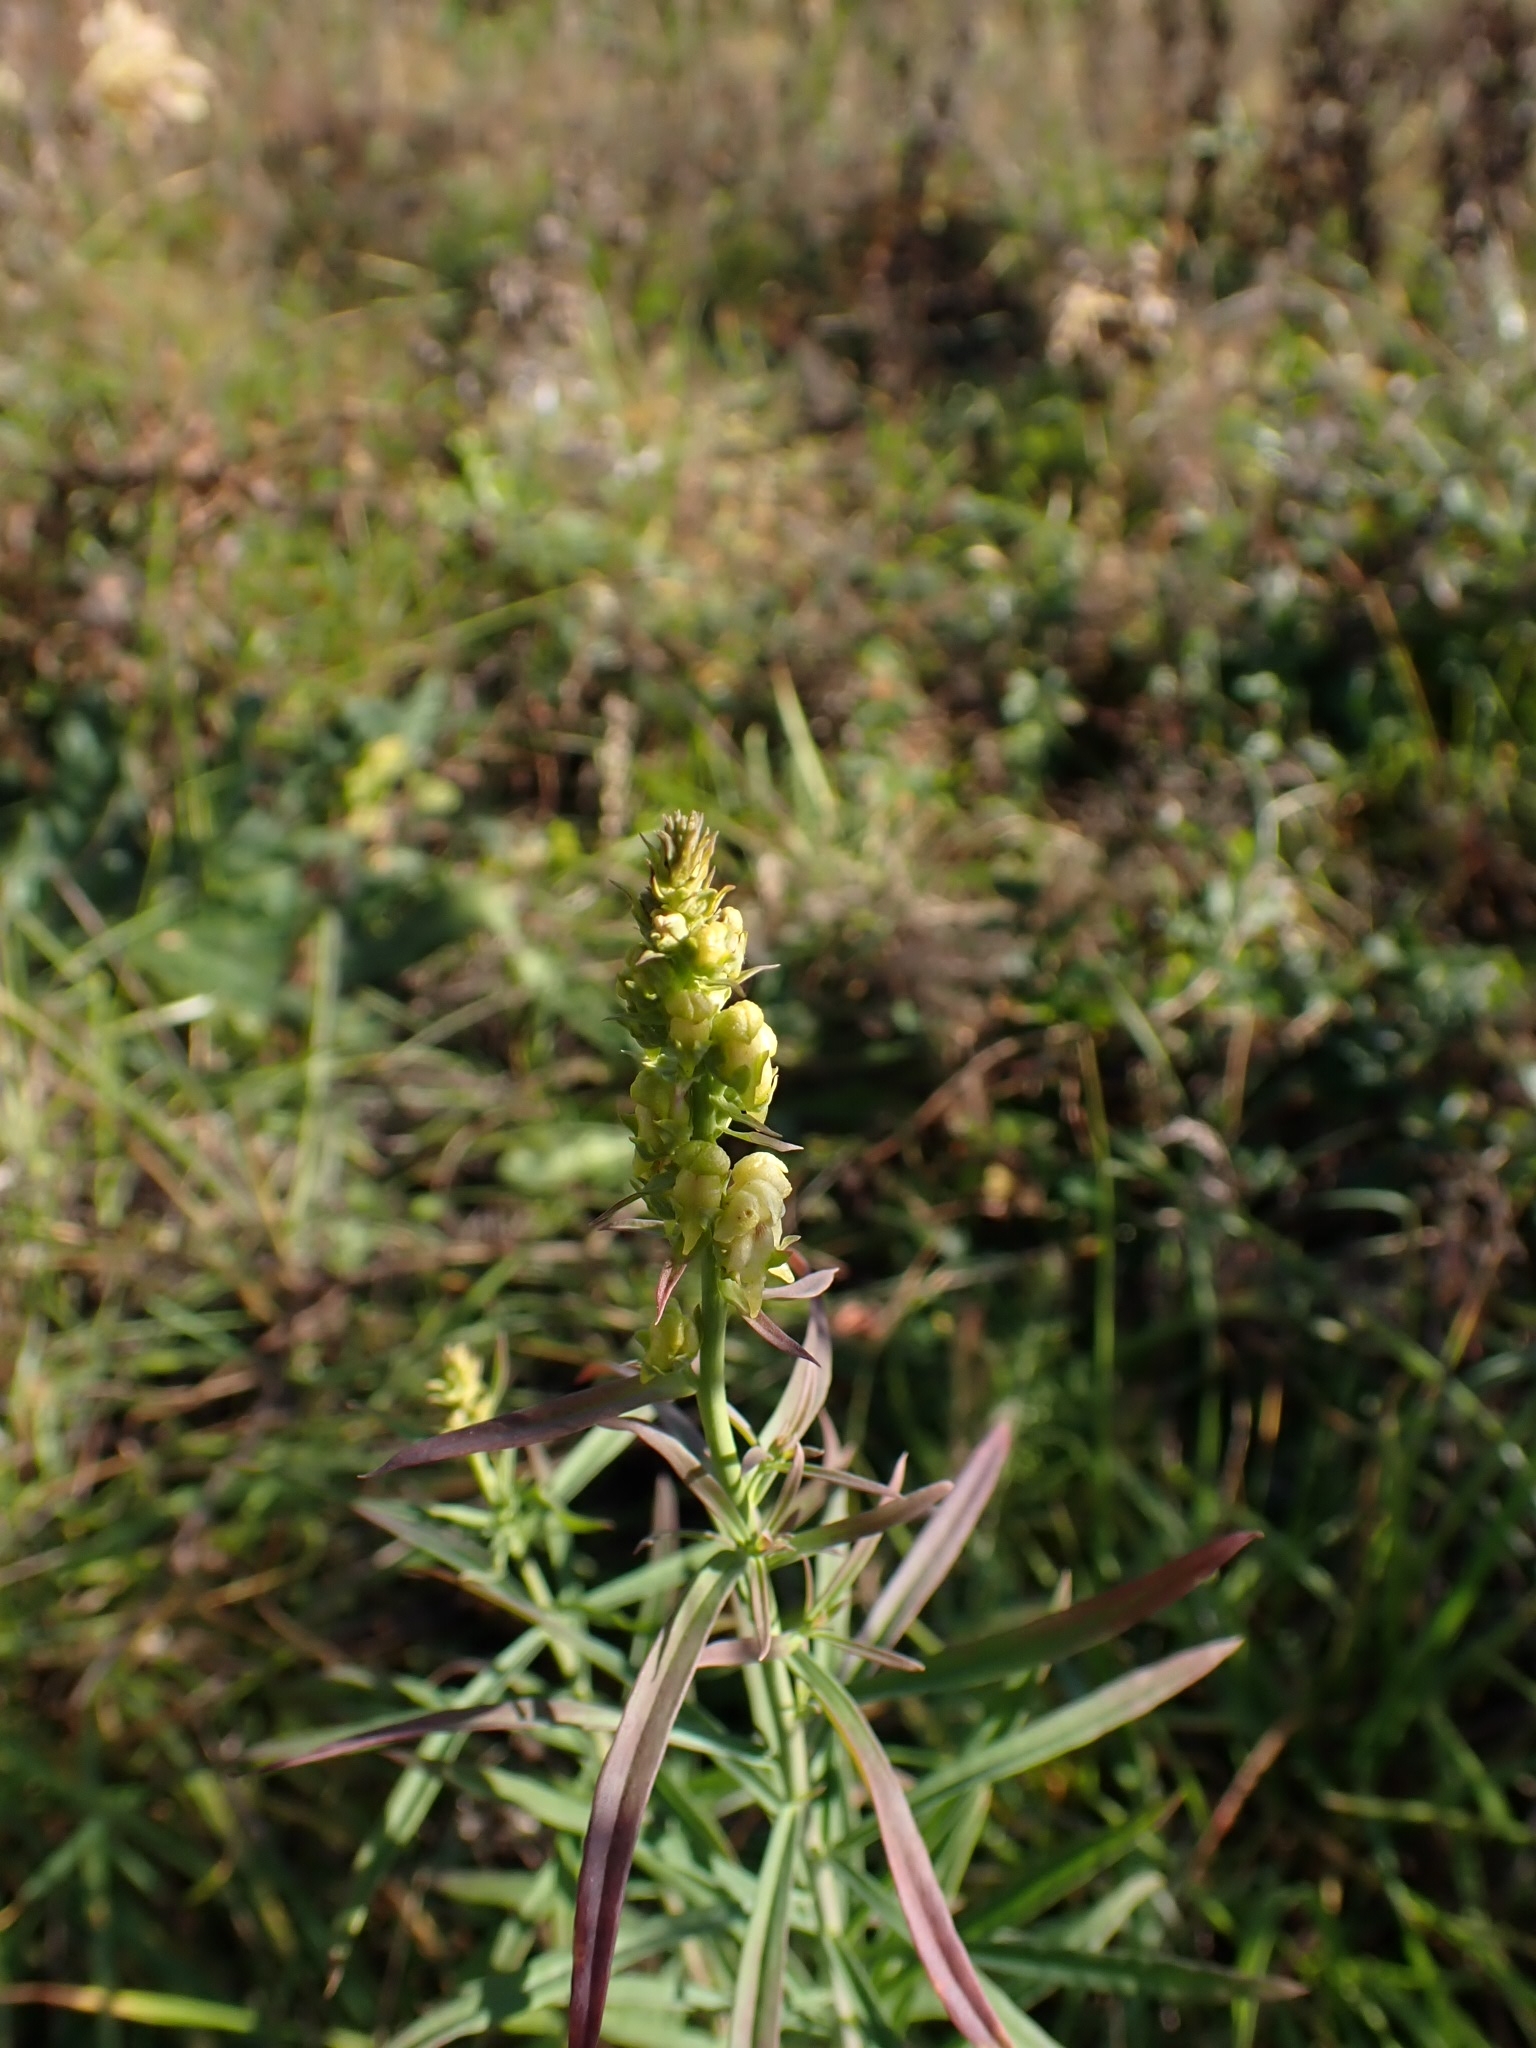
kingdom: Plantae
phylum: Tracheophyta
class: Magnoliopsida
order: Lamiales
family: Plantaginaceae
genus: Linaria
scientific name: Linaria vulgaris
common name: Butter and eggs
